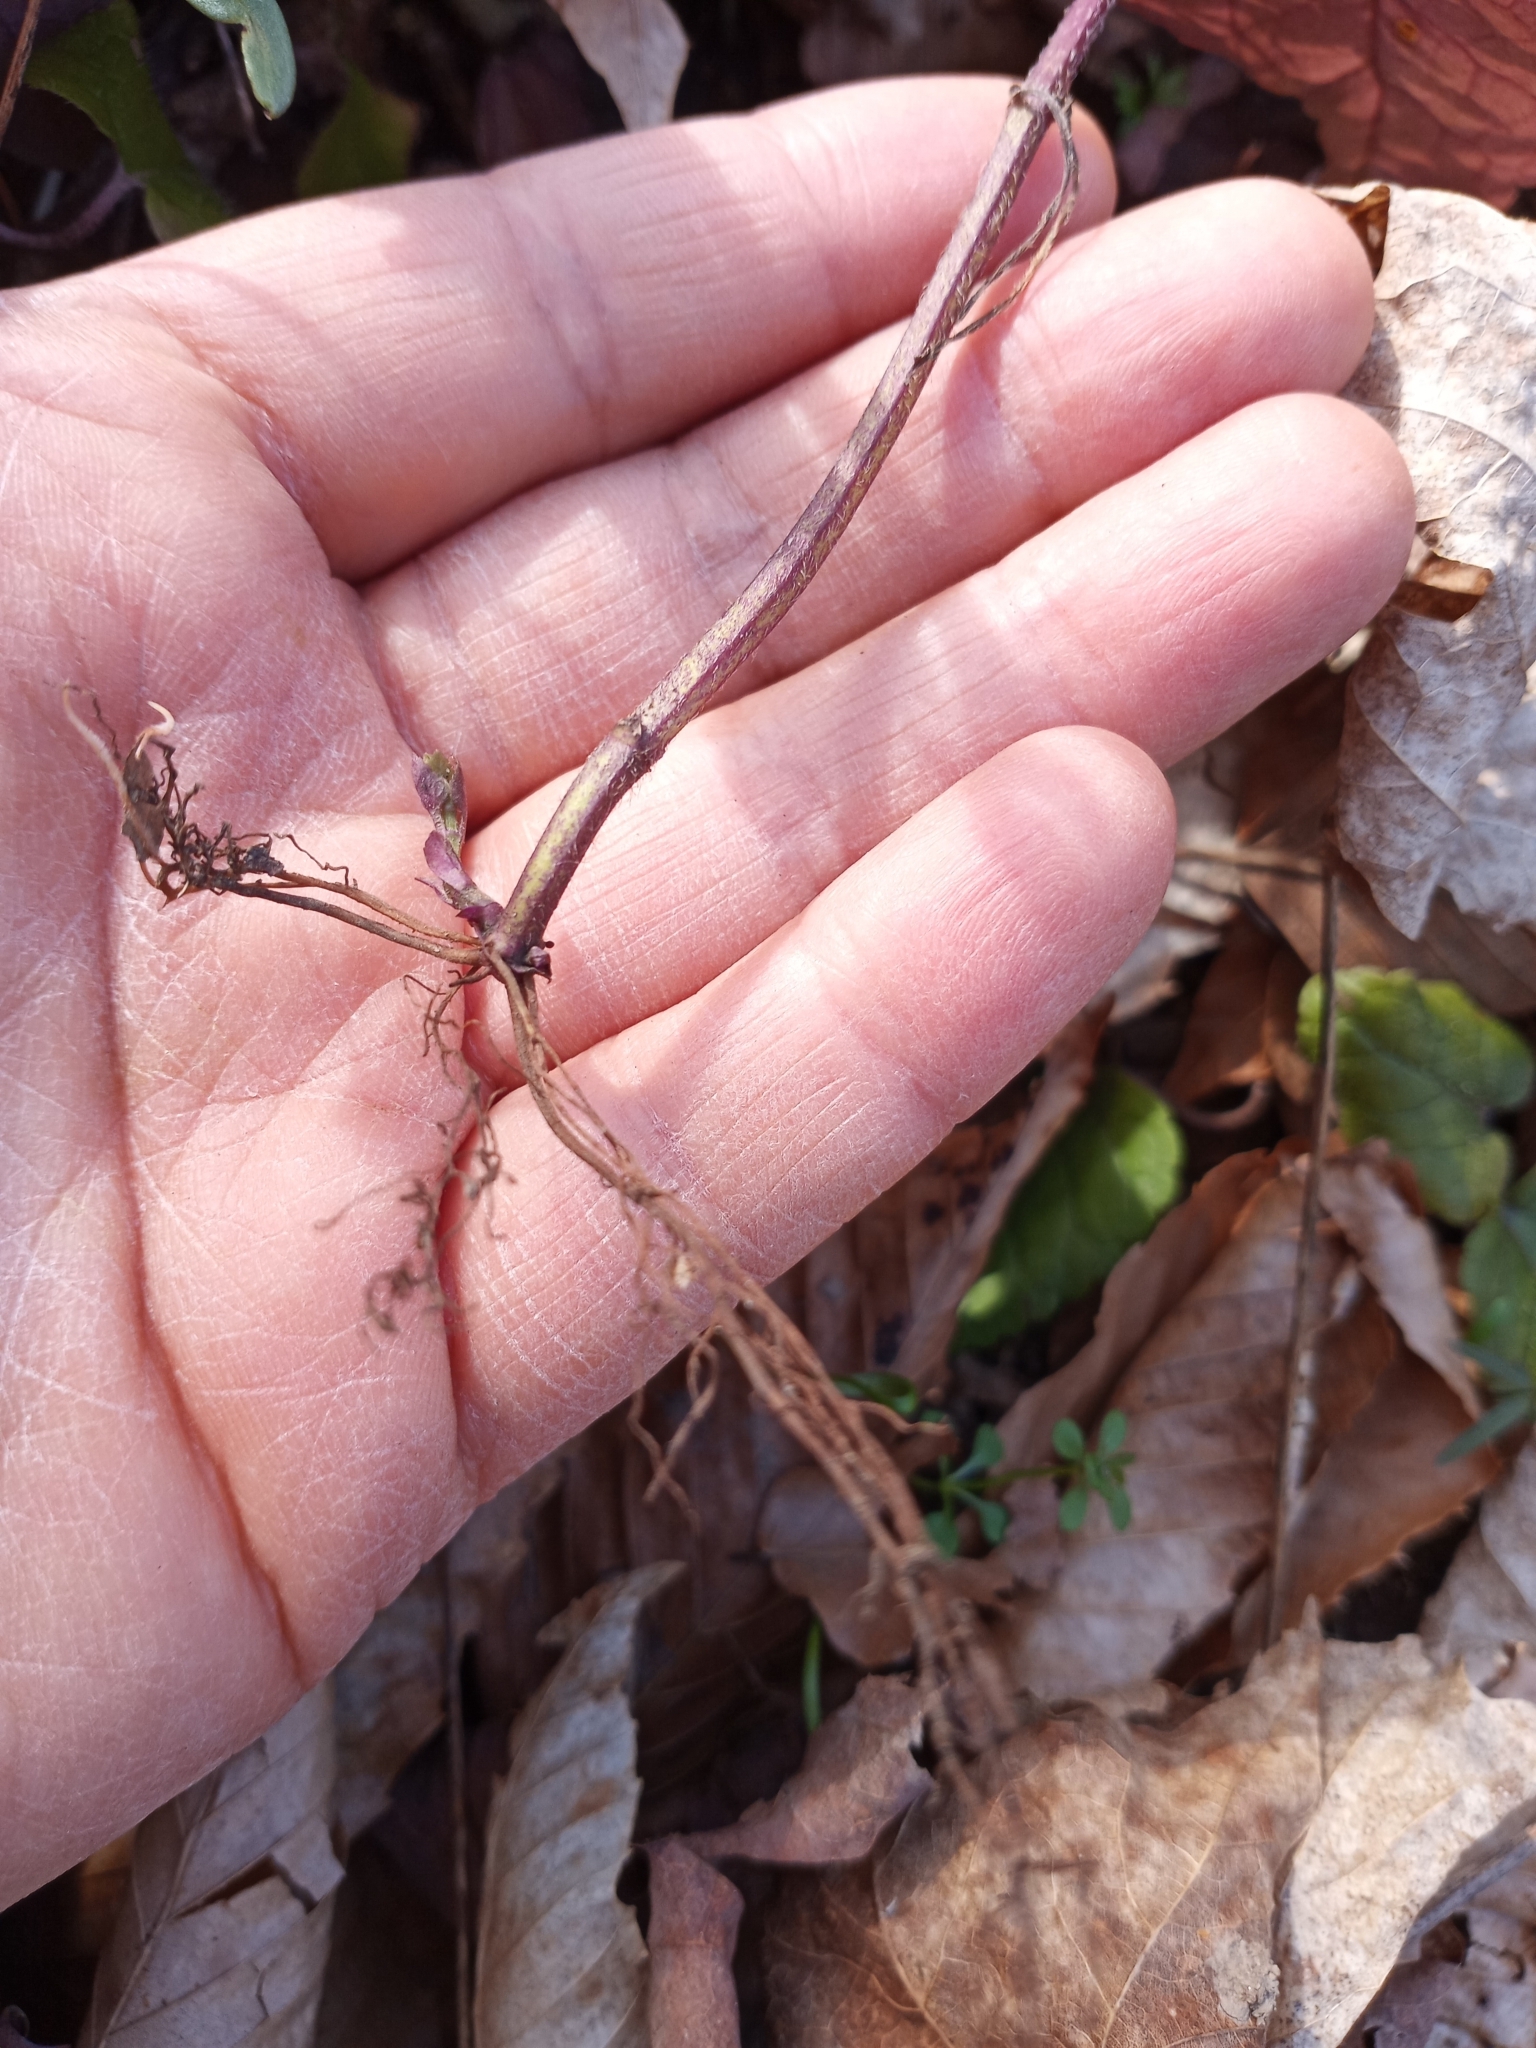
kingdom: Plantae
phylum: Tracheophyta
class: Magnoliopsida
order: Lamiales
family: Lamiaceae
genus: Meehania
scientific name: Meehania cordata
